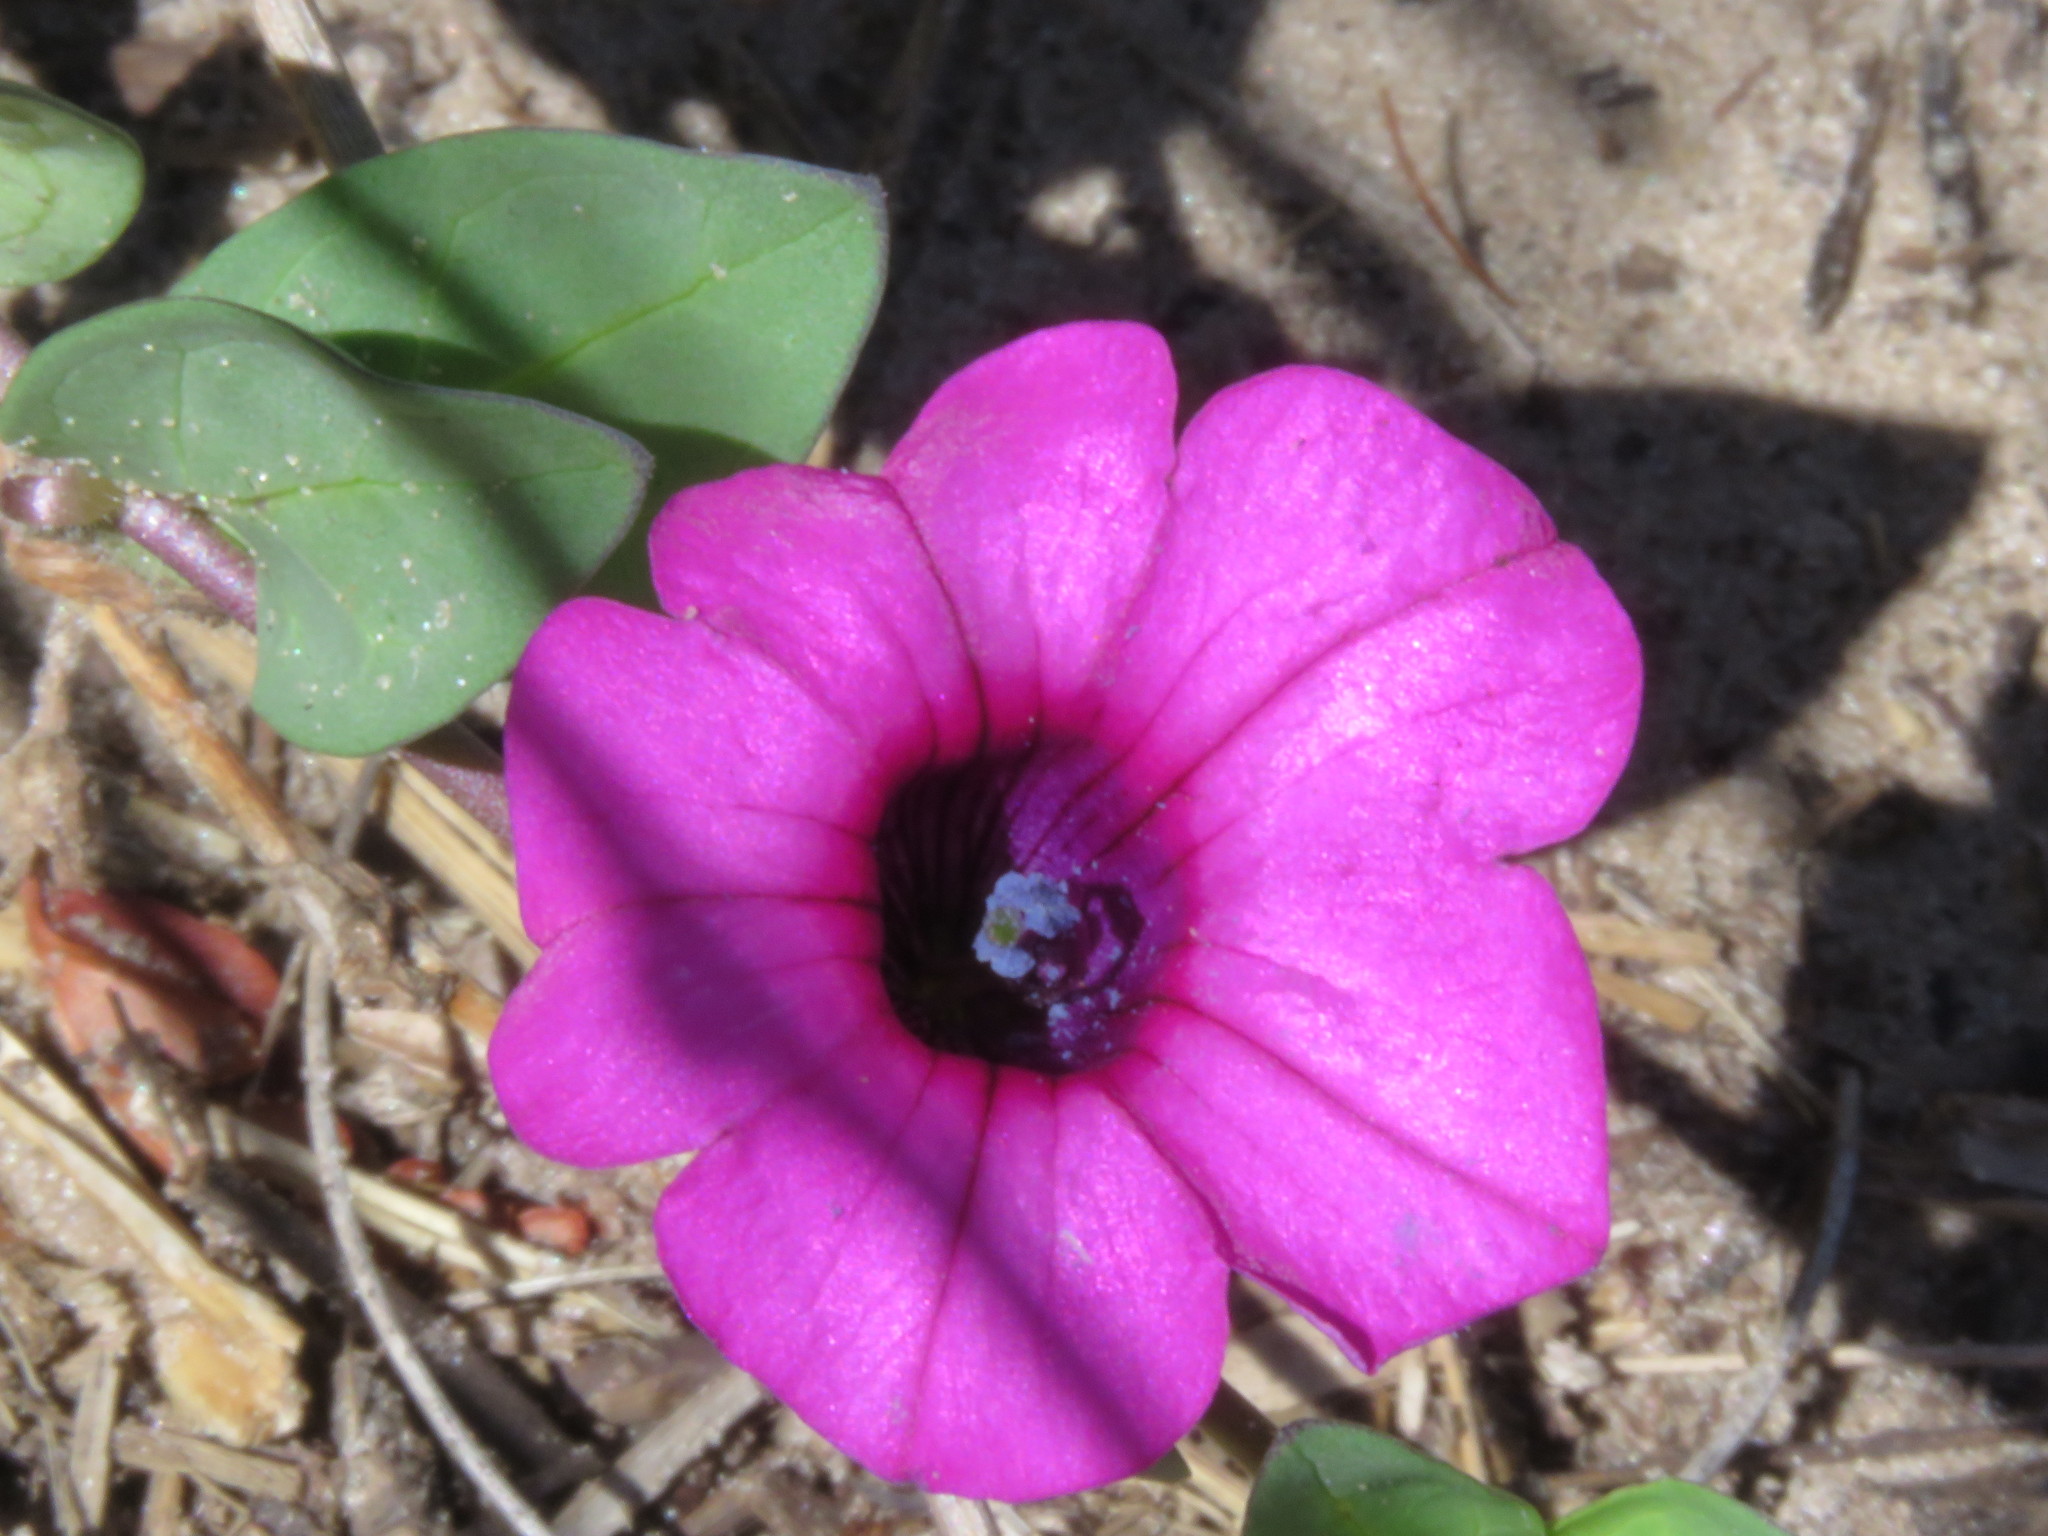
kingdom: Plantae
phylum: Tracheophyta
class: Magnoliopsida
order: Solanales
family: Solanaceae
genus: Petunia
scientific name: Petunia integrifolia
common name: Violet-flower petunia
